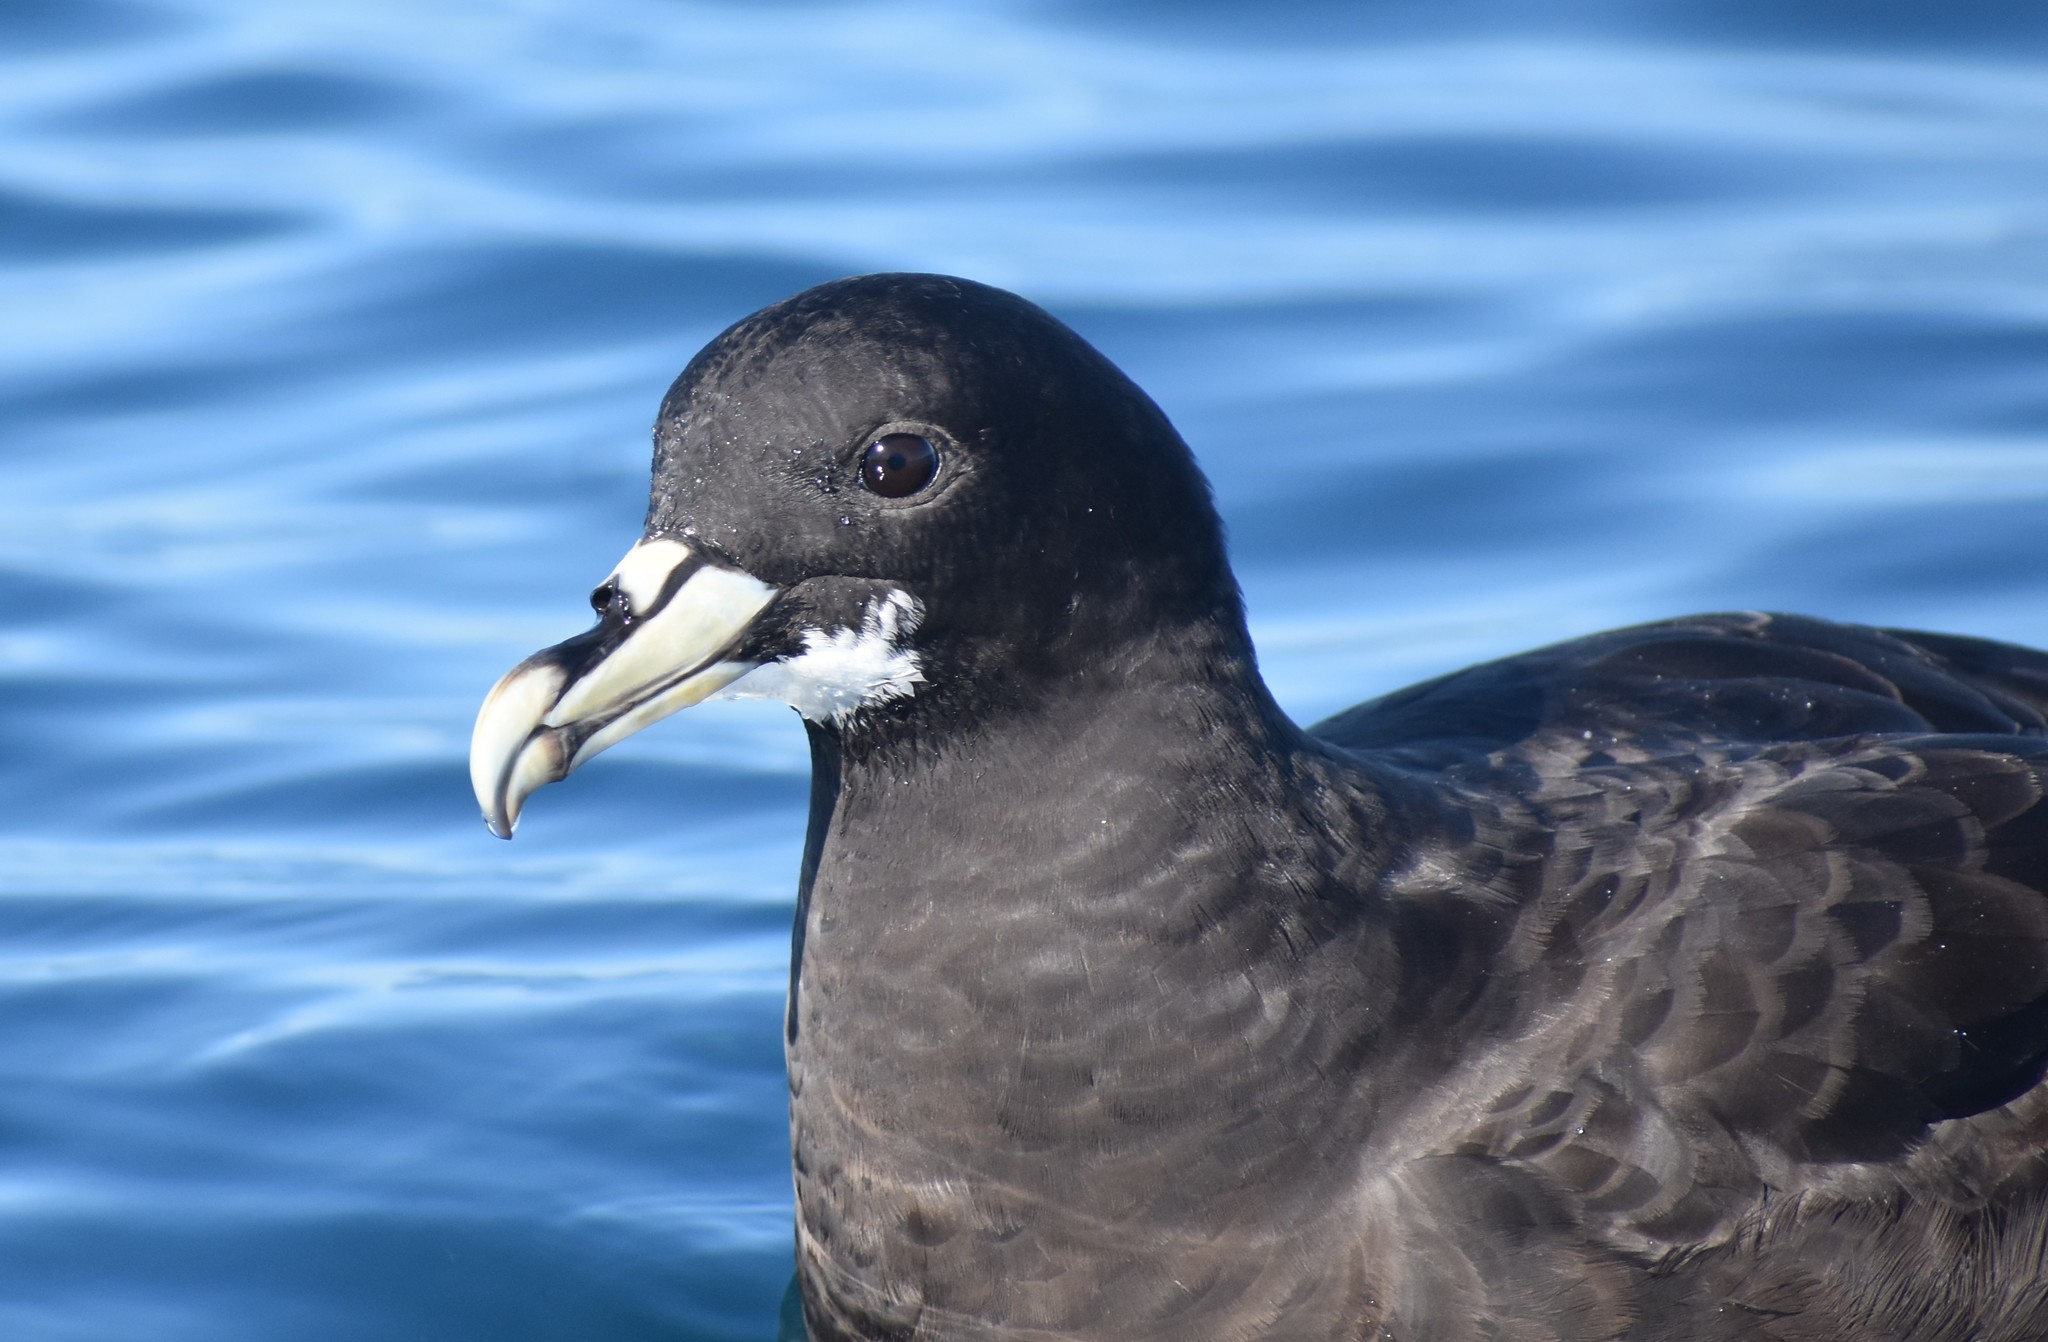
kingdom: Animalia
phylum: Chordata
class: Aves
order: Procellariiformes
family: Procellariidae
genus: Procellaria
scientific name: Procellaria aequinoctialis
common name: White-chinned petrel
